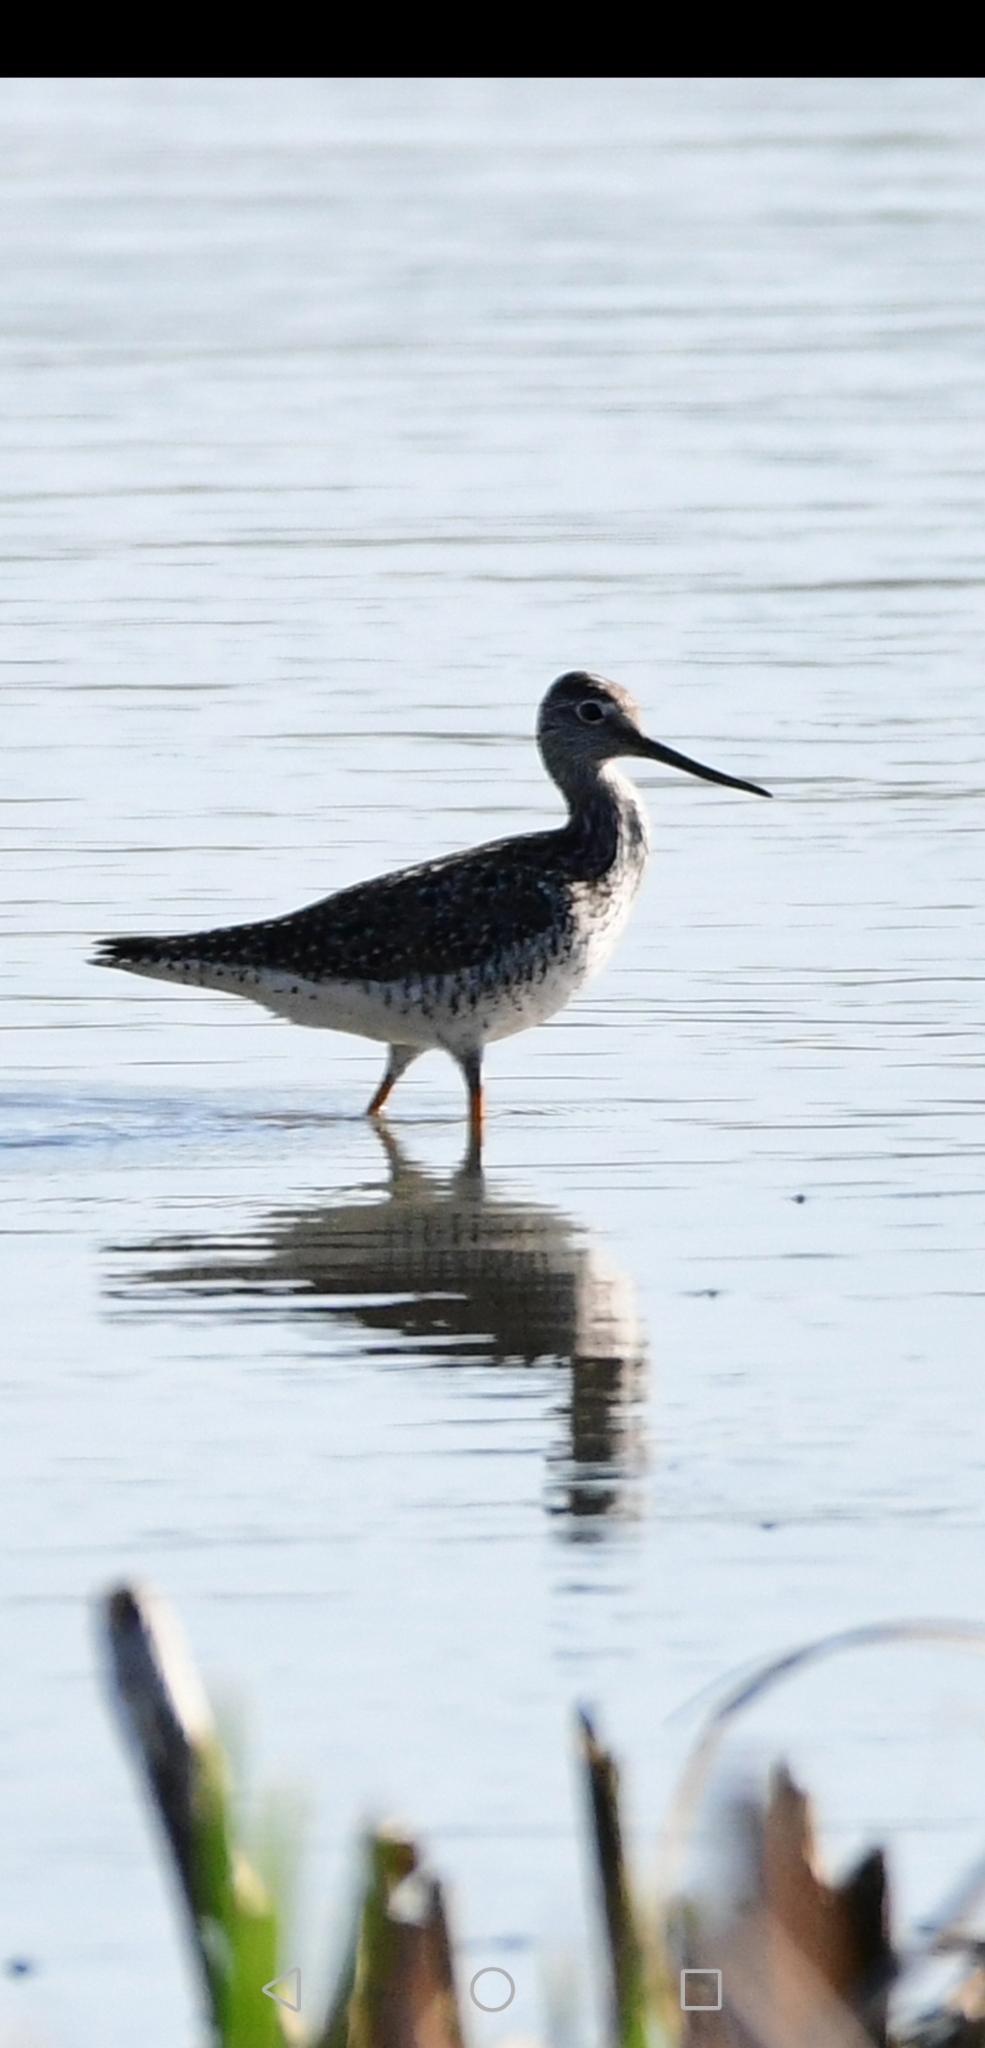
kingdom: Animalia
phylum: Chordata
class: Aves
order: Charadriiformes
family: Scolopacidae
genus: Tringa
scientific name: Tringa melanoleuca
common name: Greater yellowlegs
